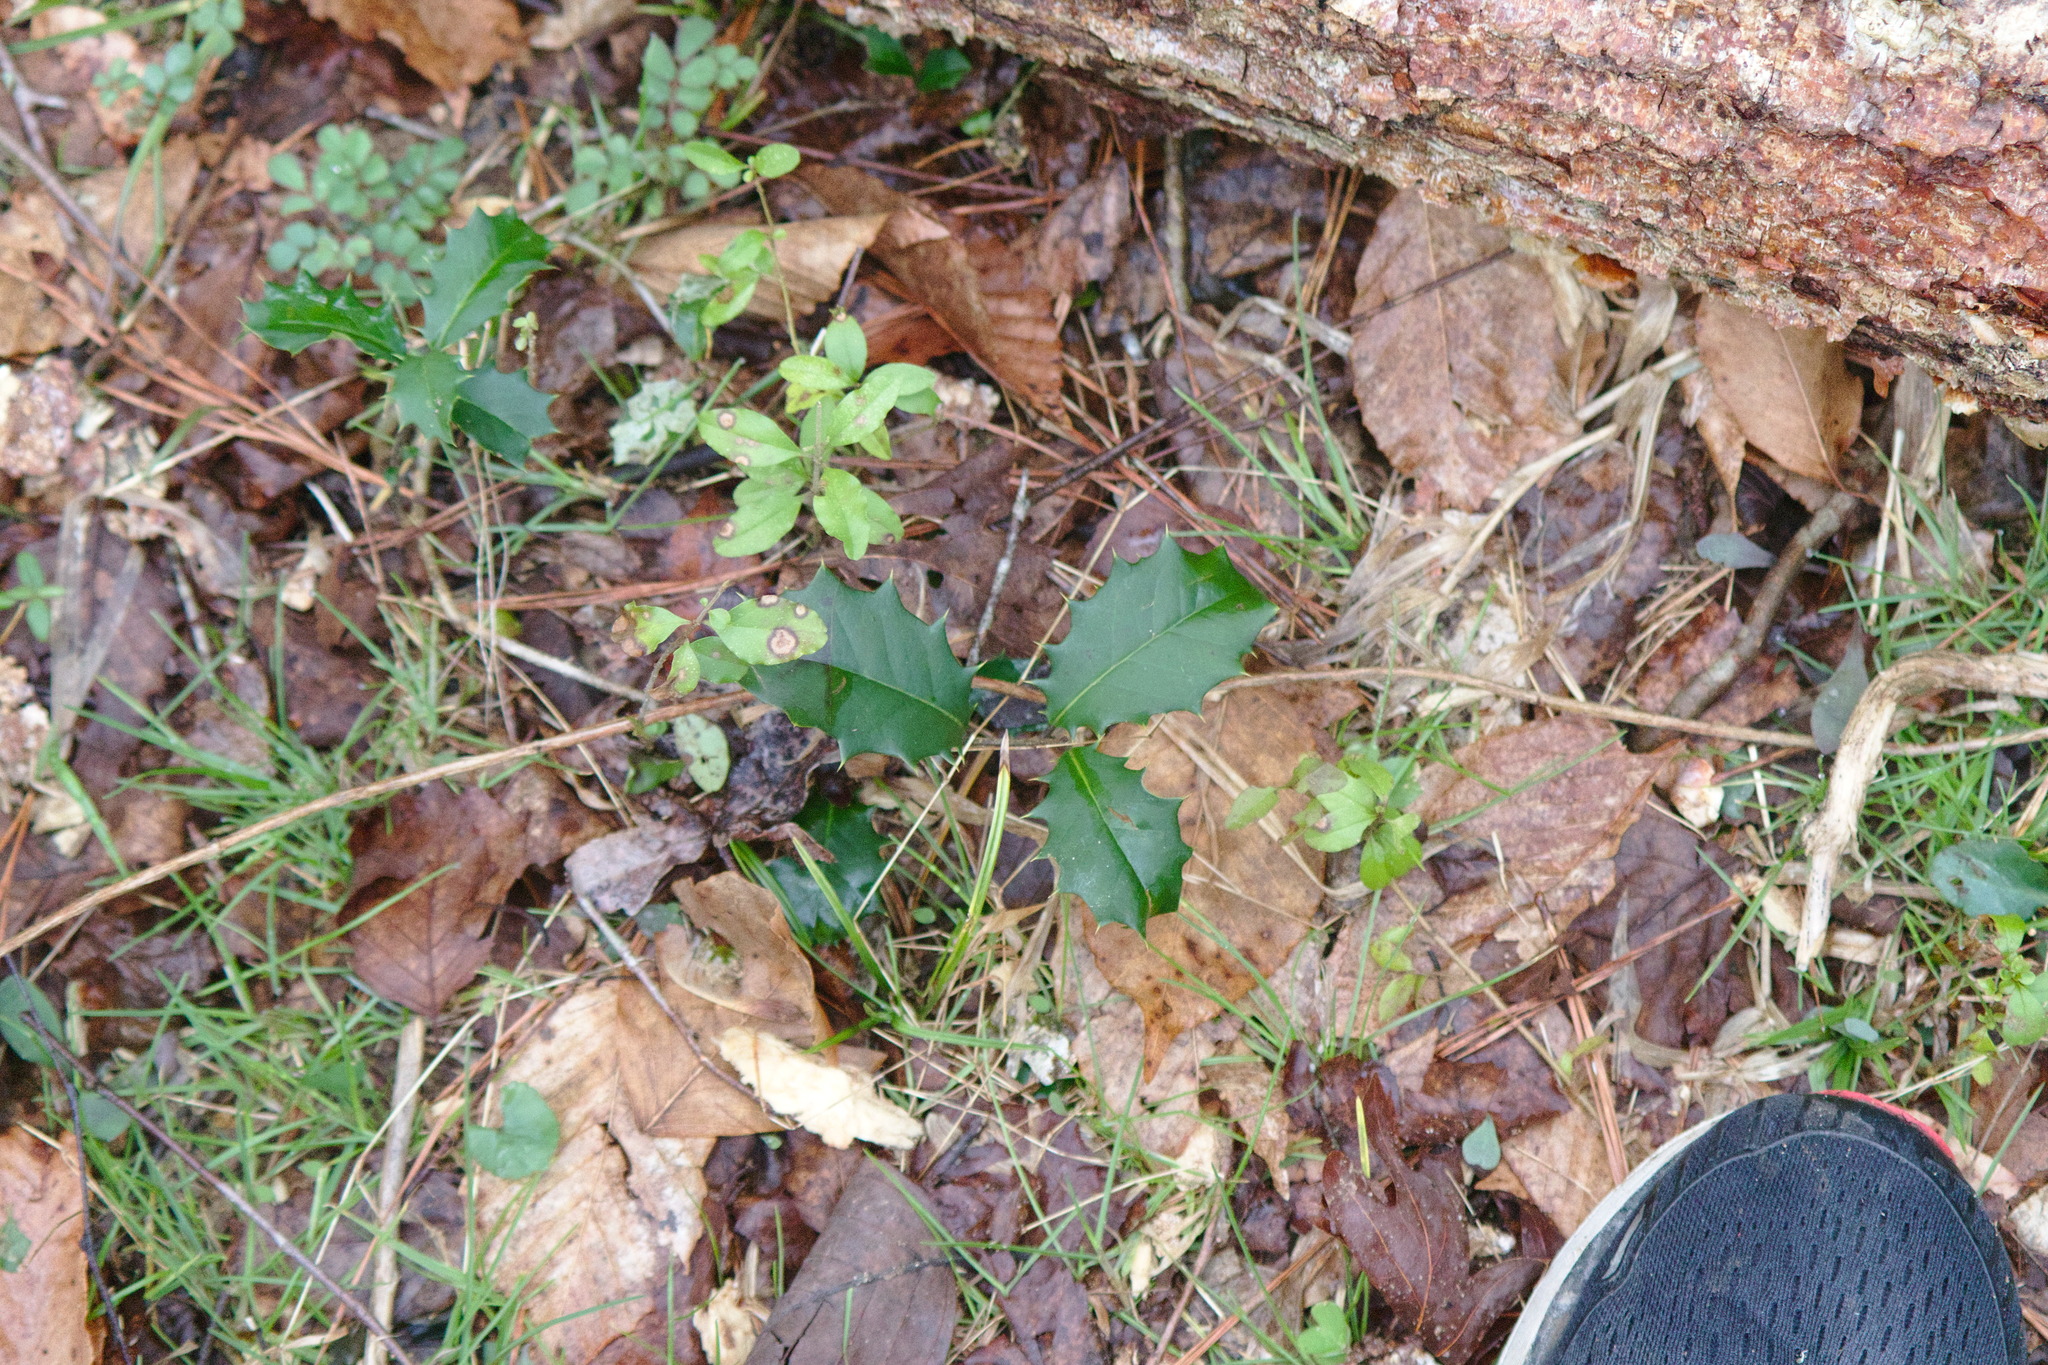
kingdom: Plantae
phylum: Tracheophyta
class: Magnoliopsida
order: Aquifoliales
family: Aquifoliaceae
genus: Ilex
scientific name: Ilex opaca
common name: American holly
